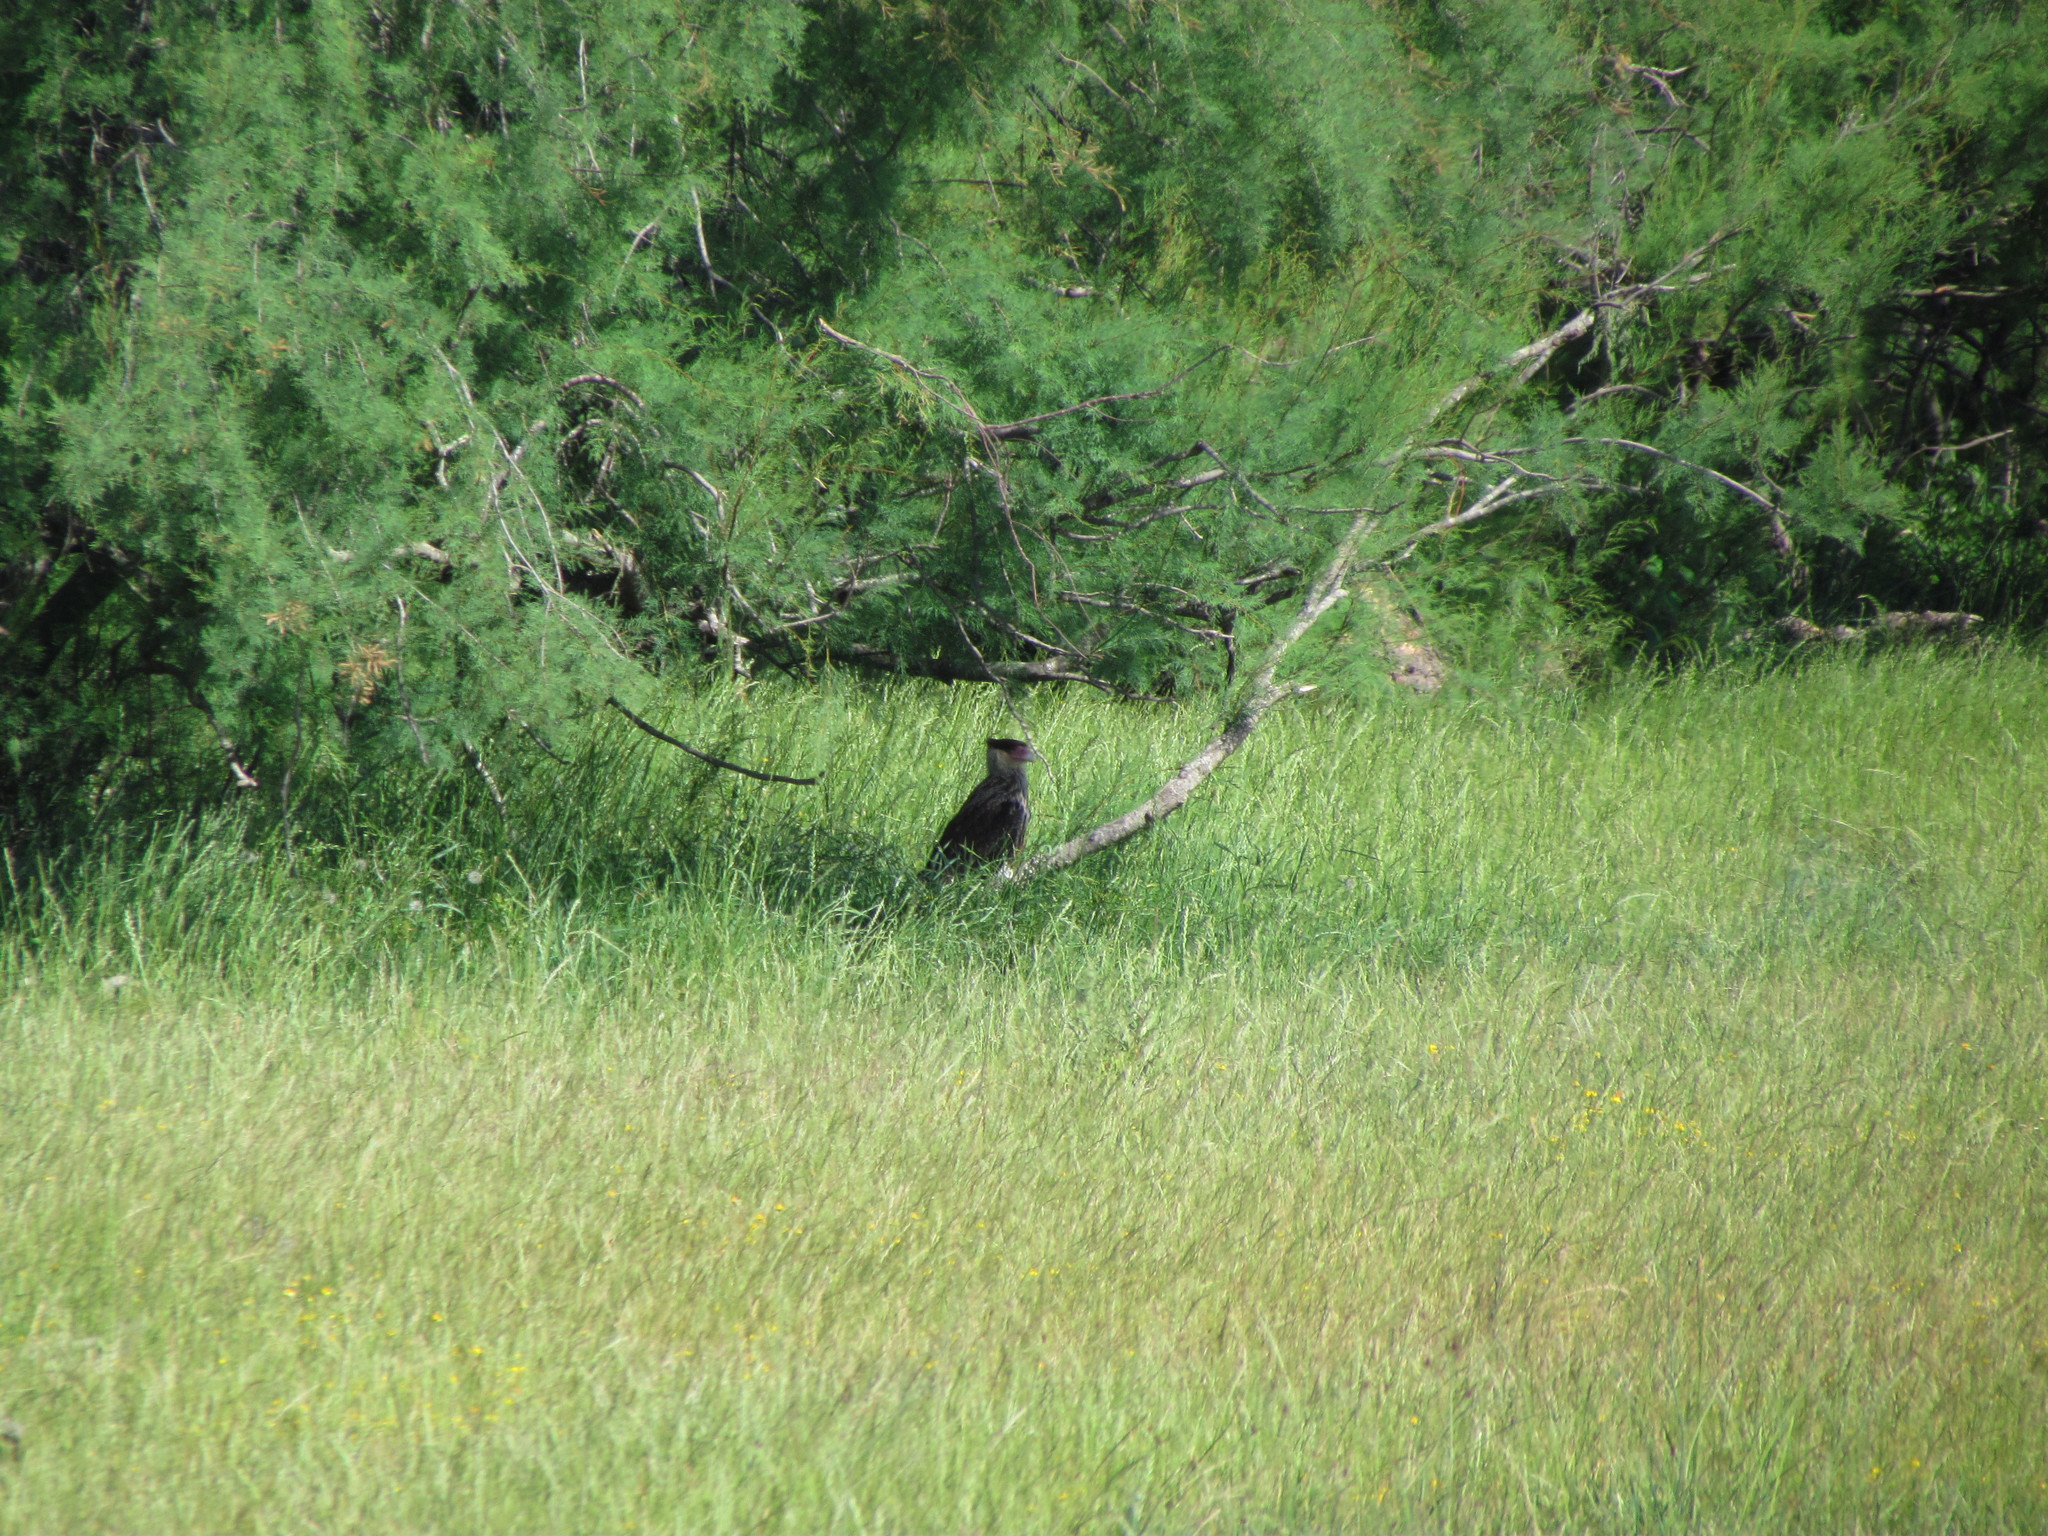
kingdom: Animalia
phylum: Chordata
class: Aves
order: Falconiformes
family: Falconidae
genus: Caracara
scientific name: Caracara plancus
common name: Southern caracara
